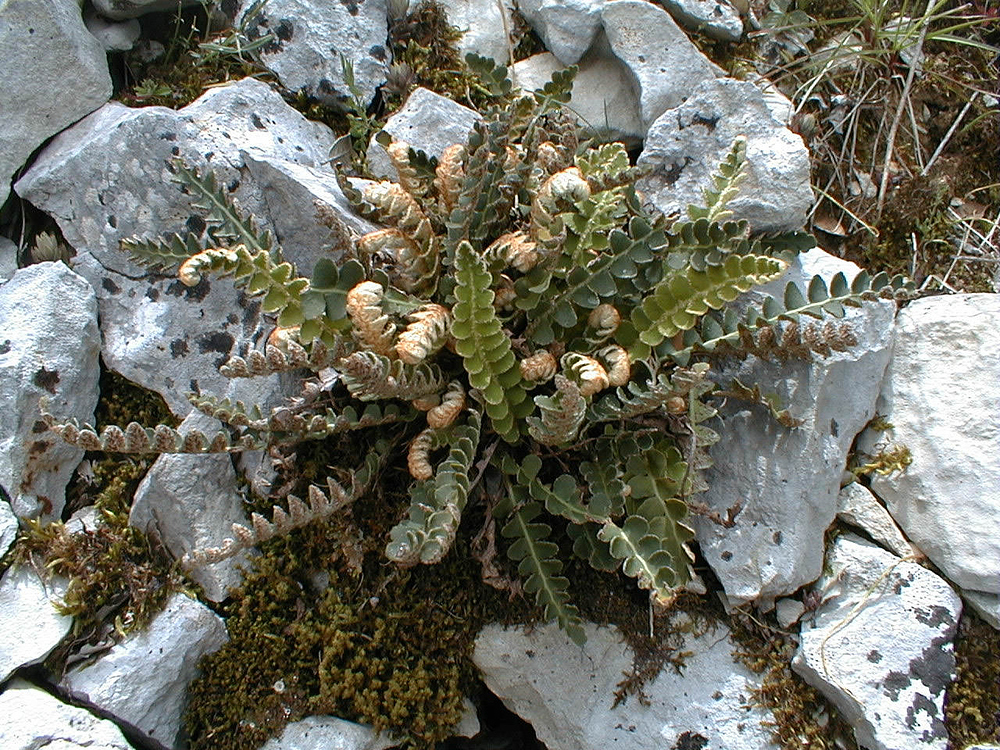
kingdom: Plantae
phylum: Tracheophyta
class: Polypodiopsida
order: Polypodiales
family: Aspleniaceae
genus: Asplenium
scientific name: Asplenium ceterach
